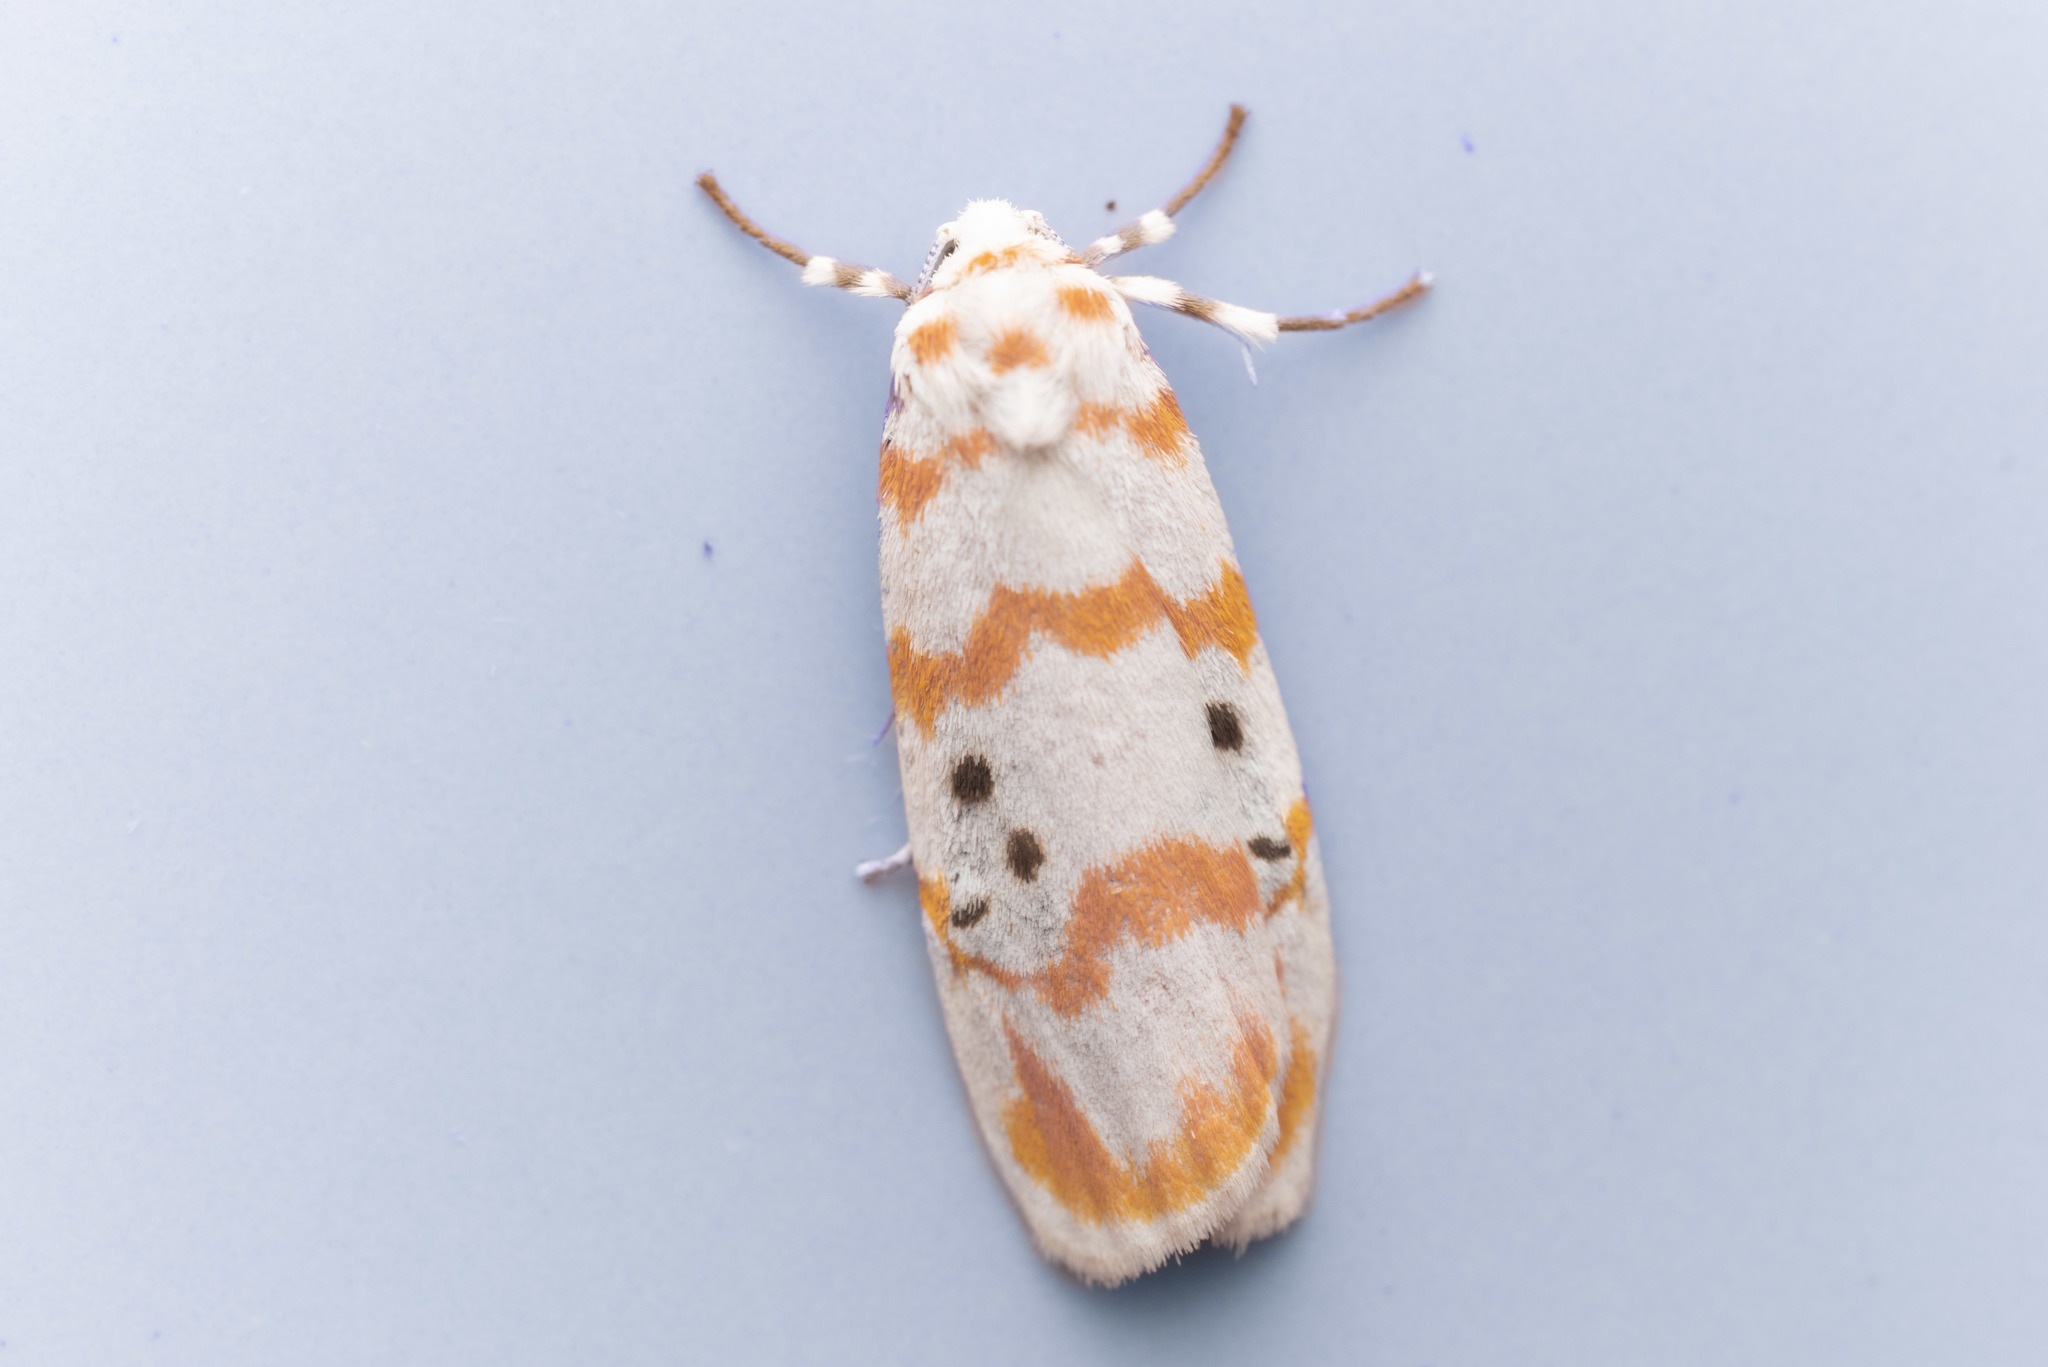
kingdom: Animalia
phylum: Arthropoda
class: Insecta
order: Lepidoptera
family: Erebidae
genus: Cyana
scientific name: Cyana interrogationis
